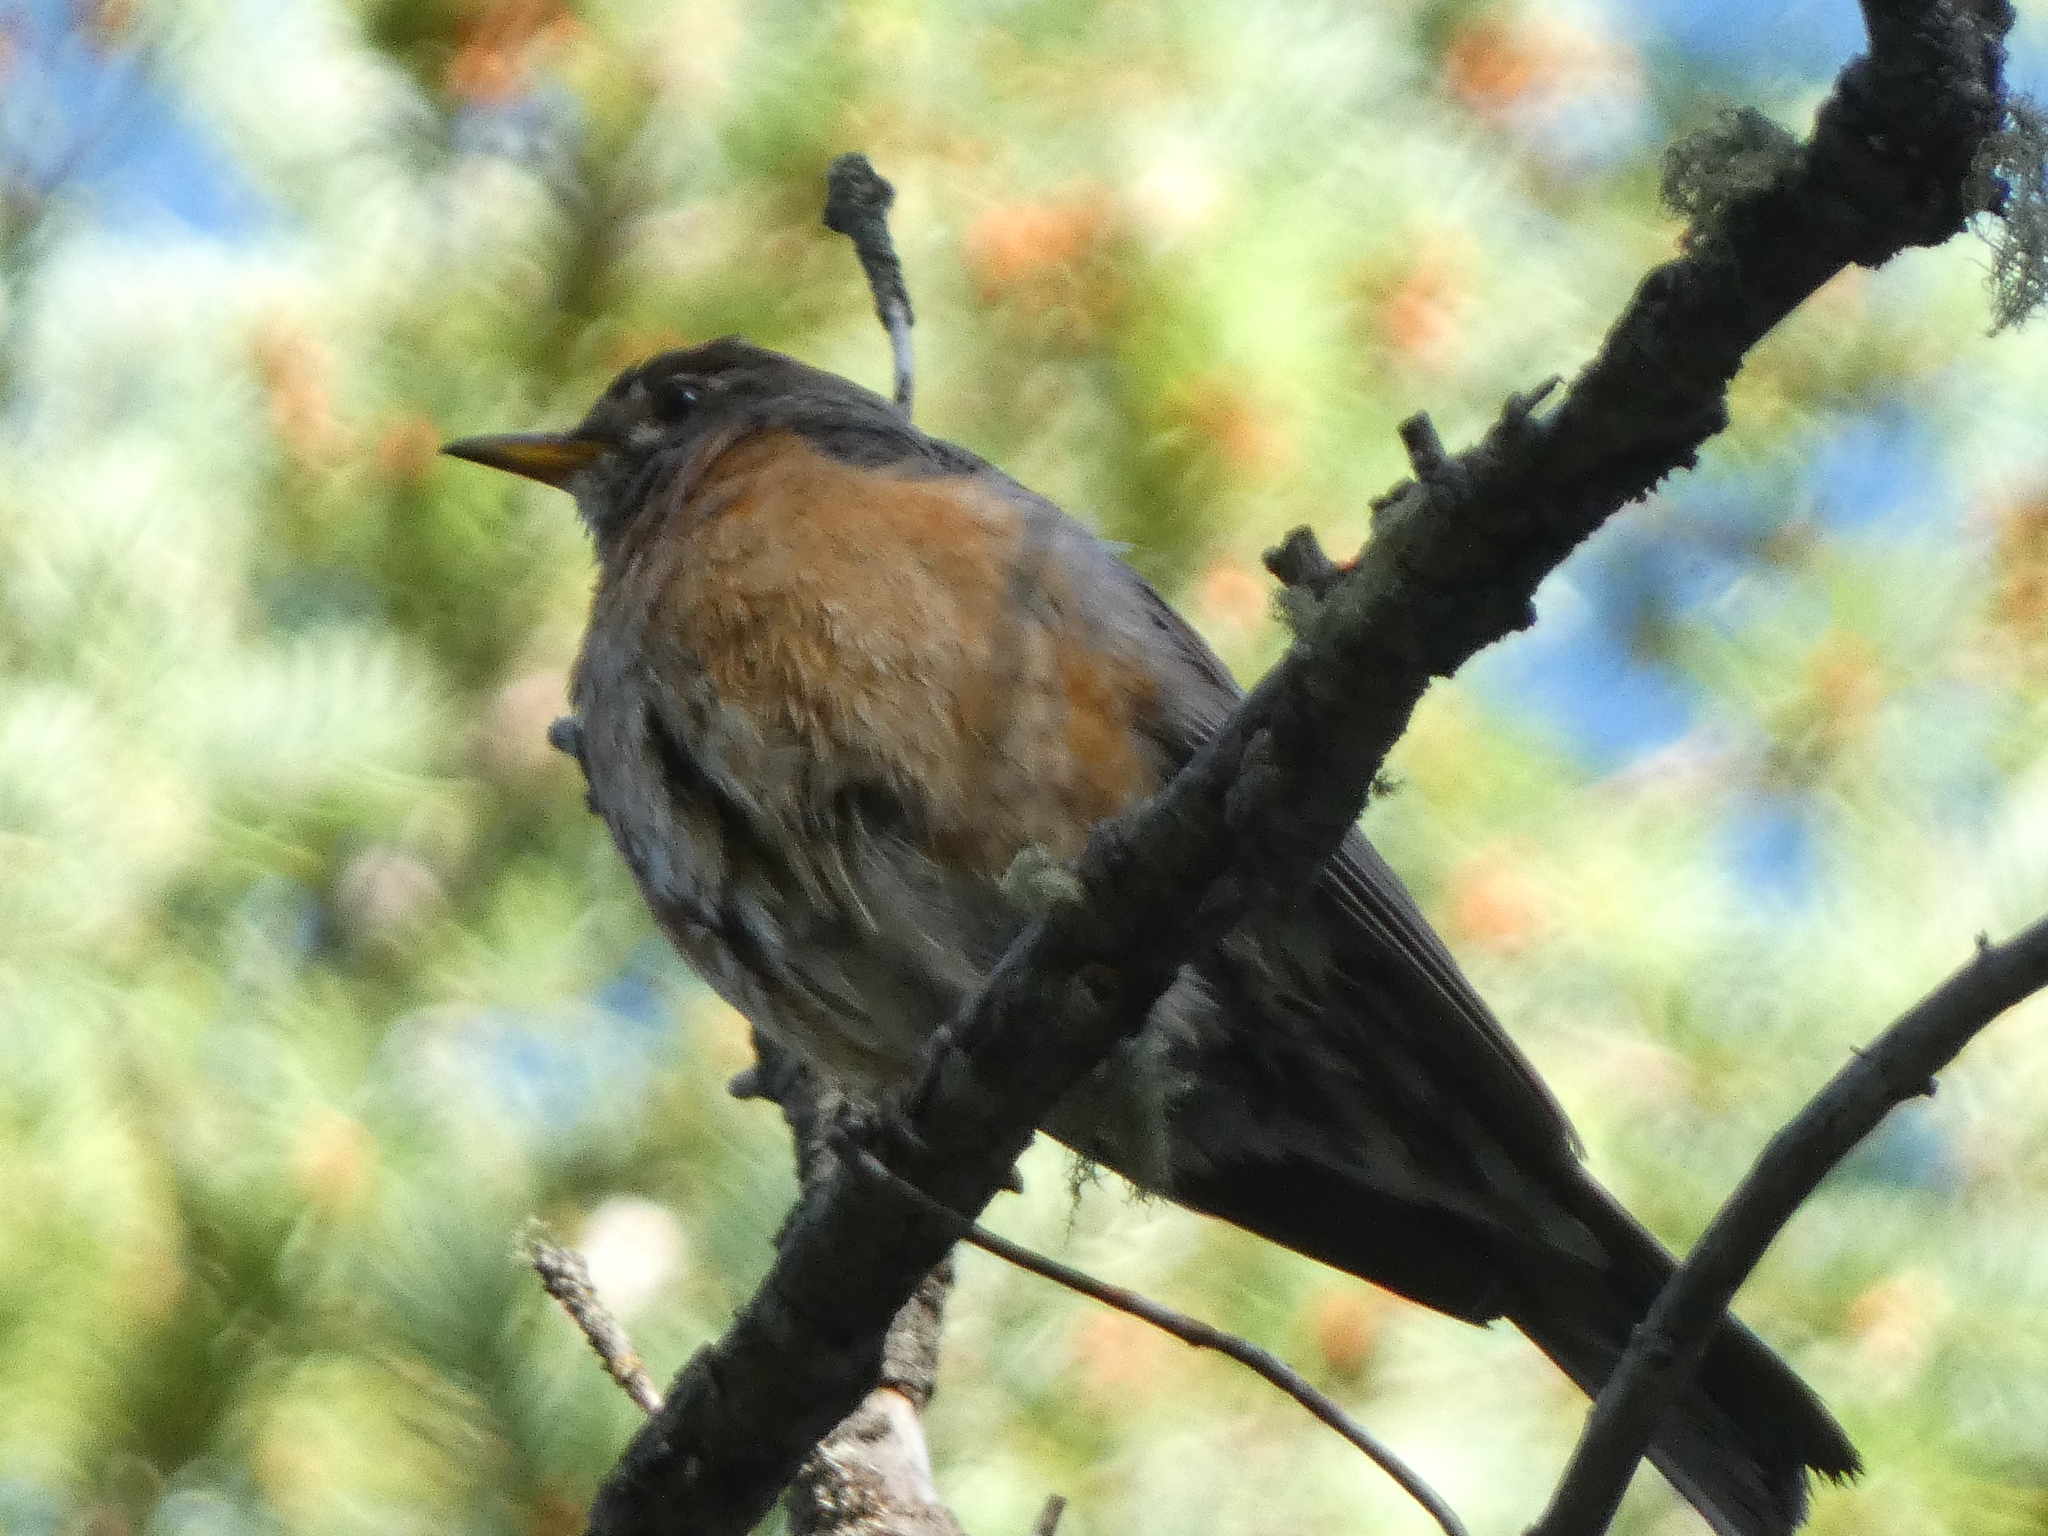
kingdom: Animalia
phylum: Chordata
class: Aves
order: Passeriformes
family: Turdidae
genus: Turdus
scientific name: Turdus migratorius
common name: American robin
